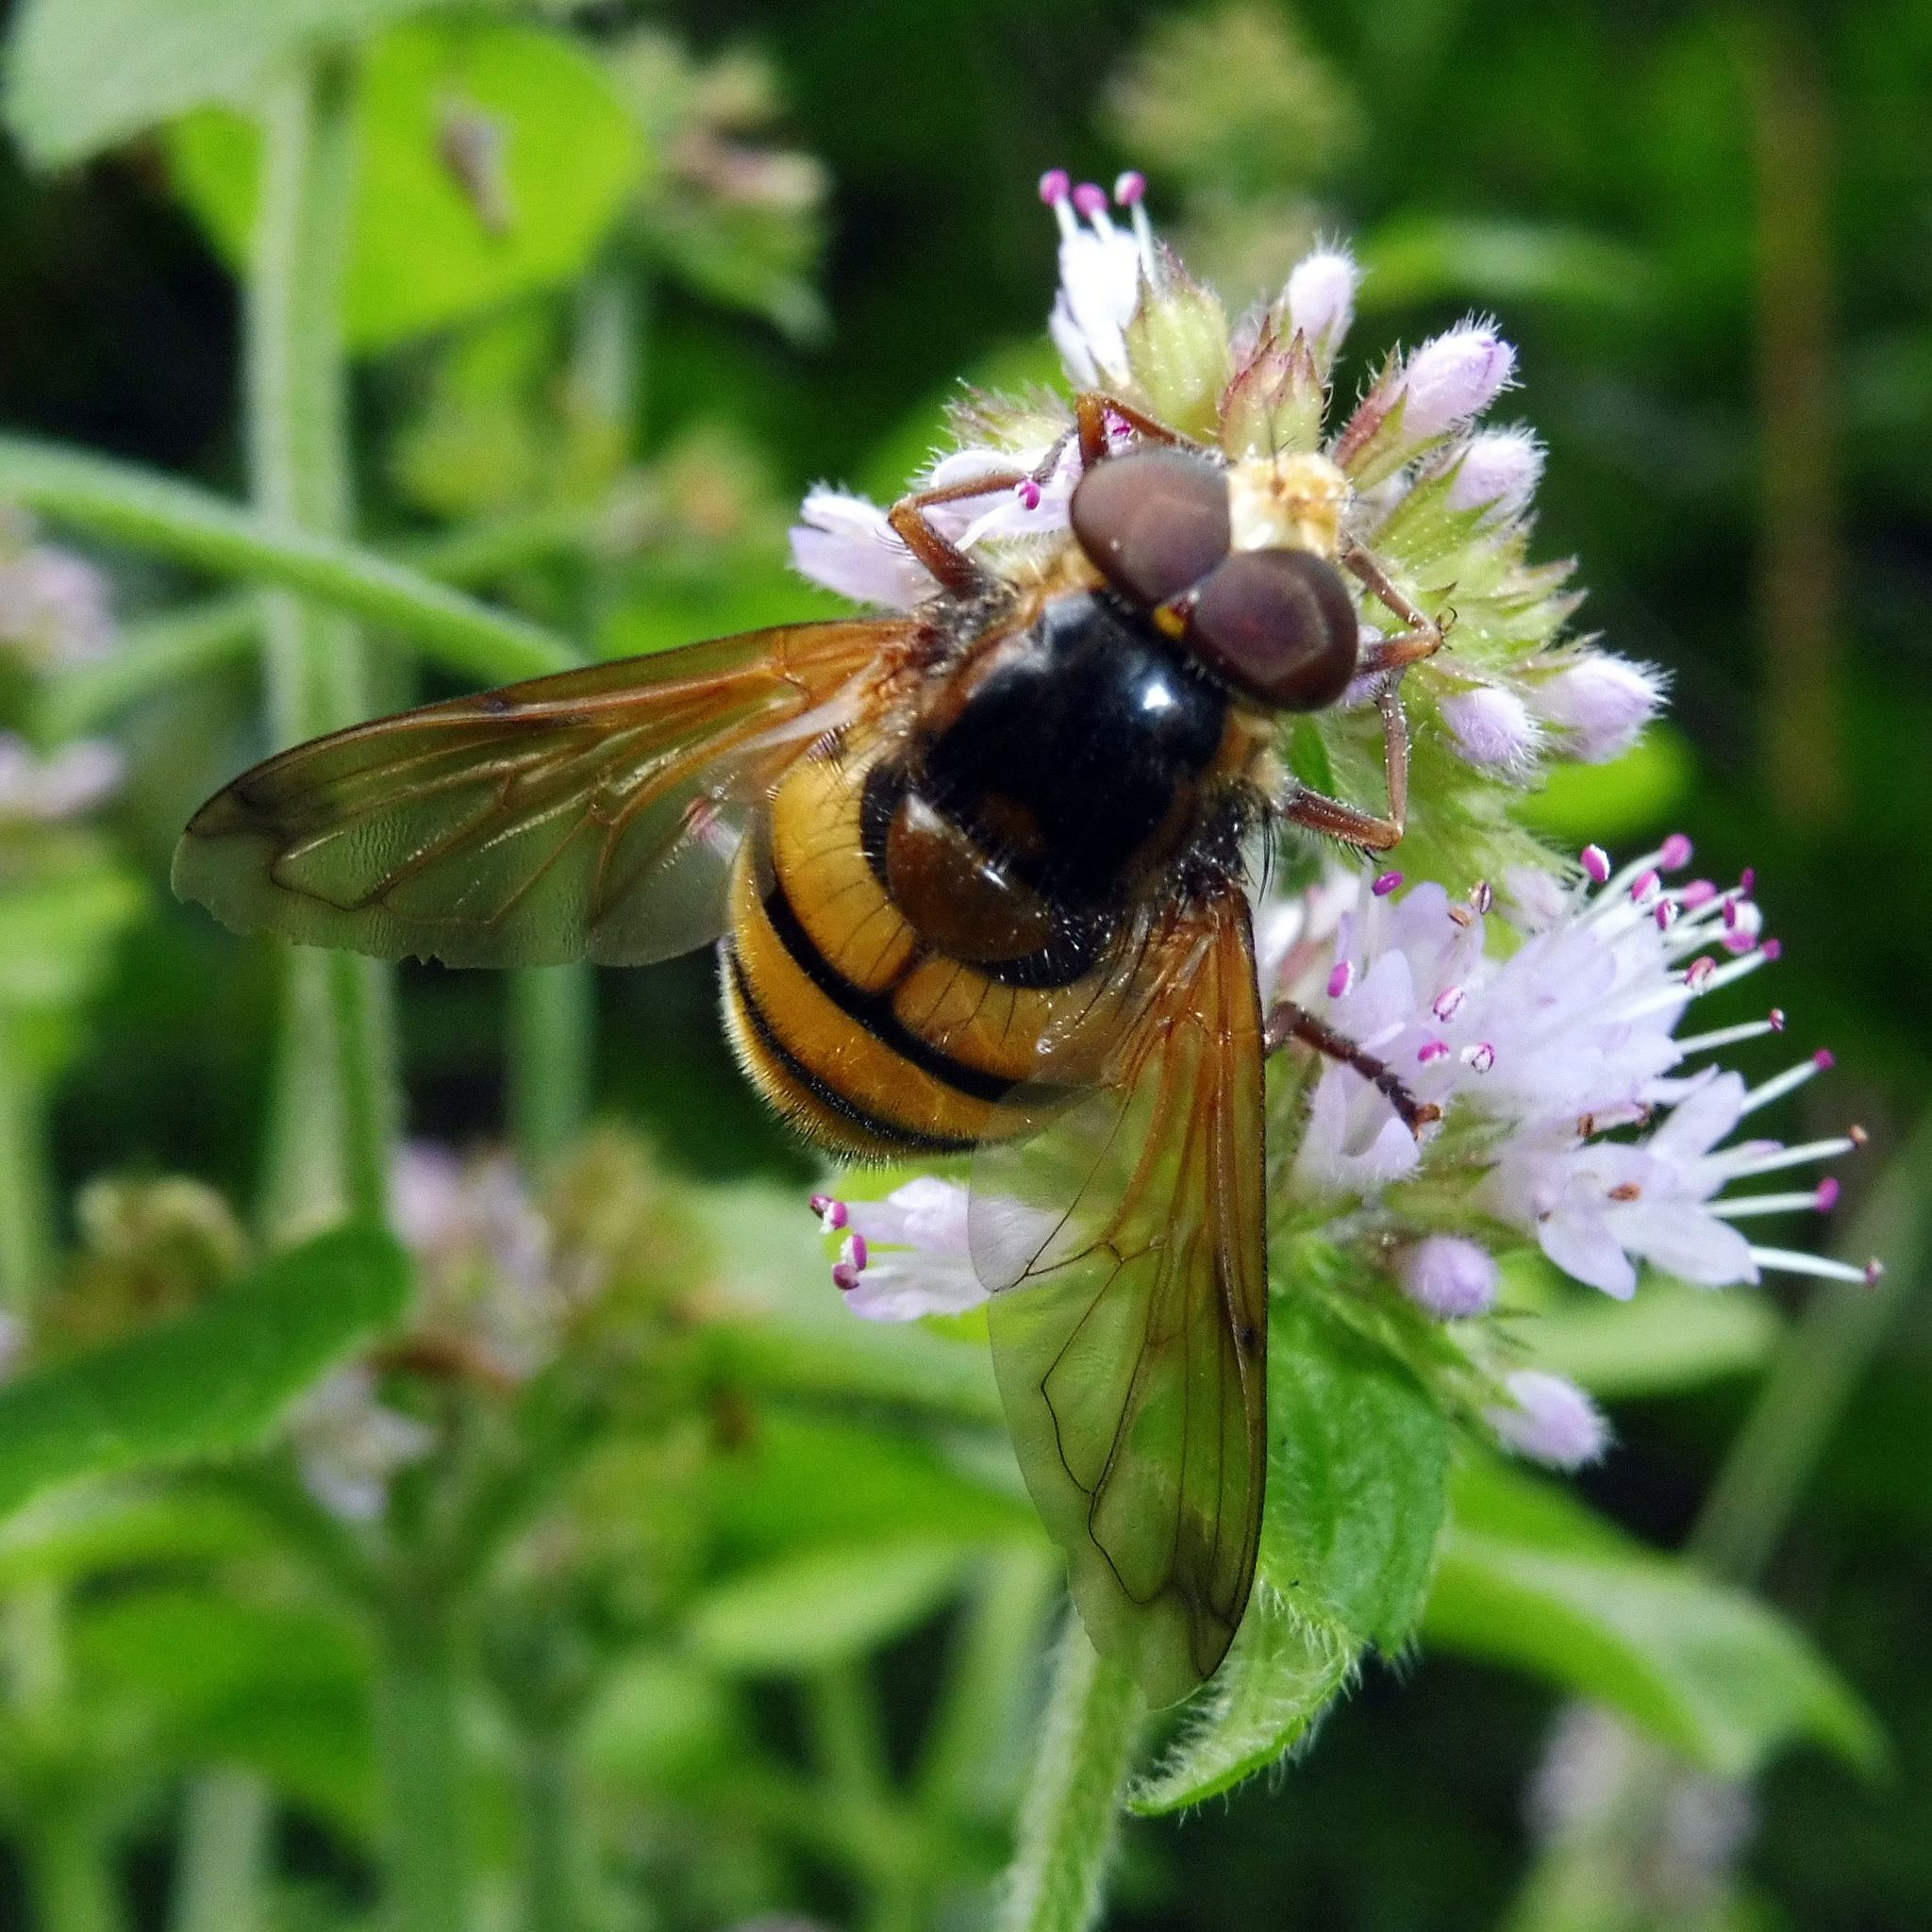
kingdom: Animalia
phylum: Arthropoda
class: Insecta
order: Diptera
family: Syrphidae
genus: Volucella
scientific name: Volucella inanis
